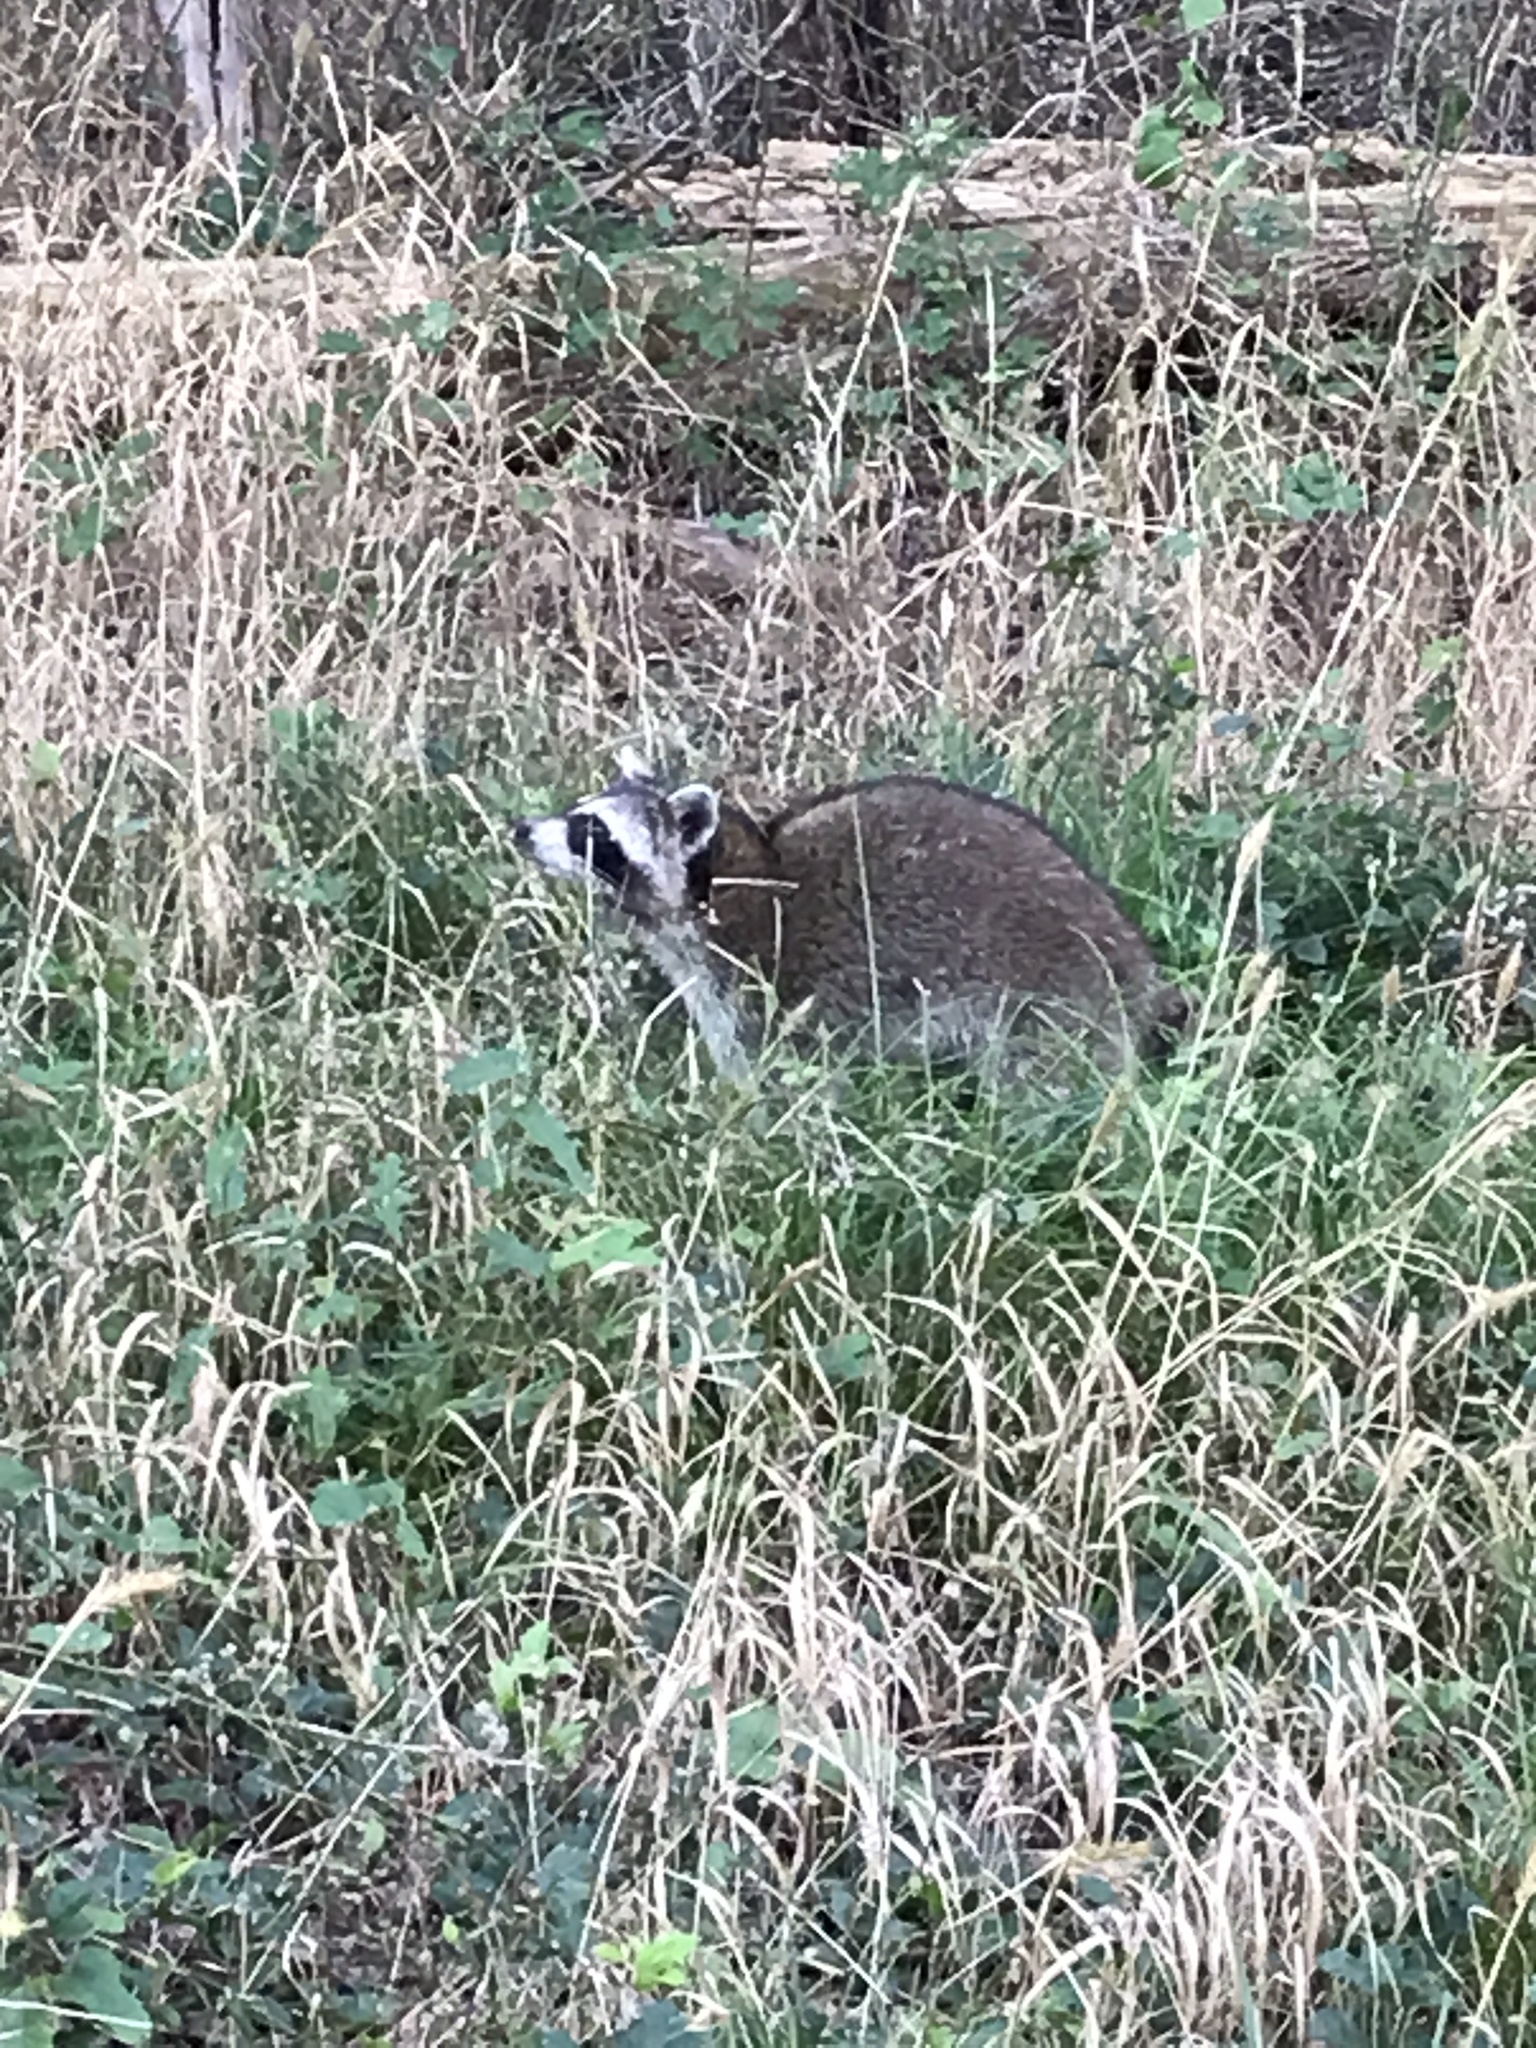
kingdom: Animalia
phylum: Chordata
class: Mammalia
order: Carnivora
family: Procyonidae
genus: Procyon
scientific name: Procyon lotor
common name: Raccoon
